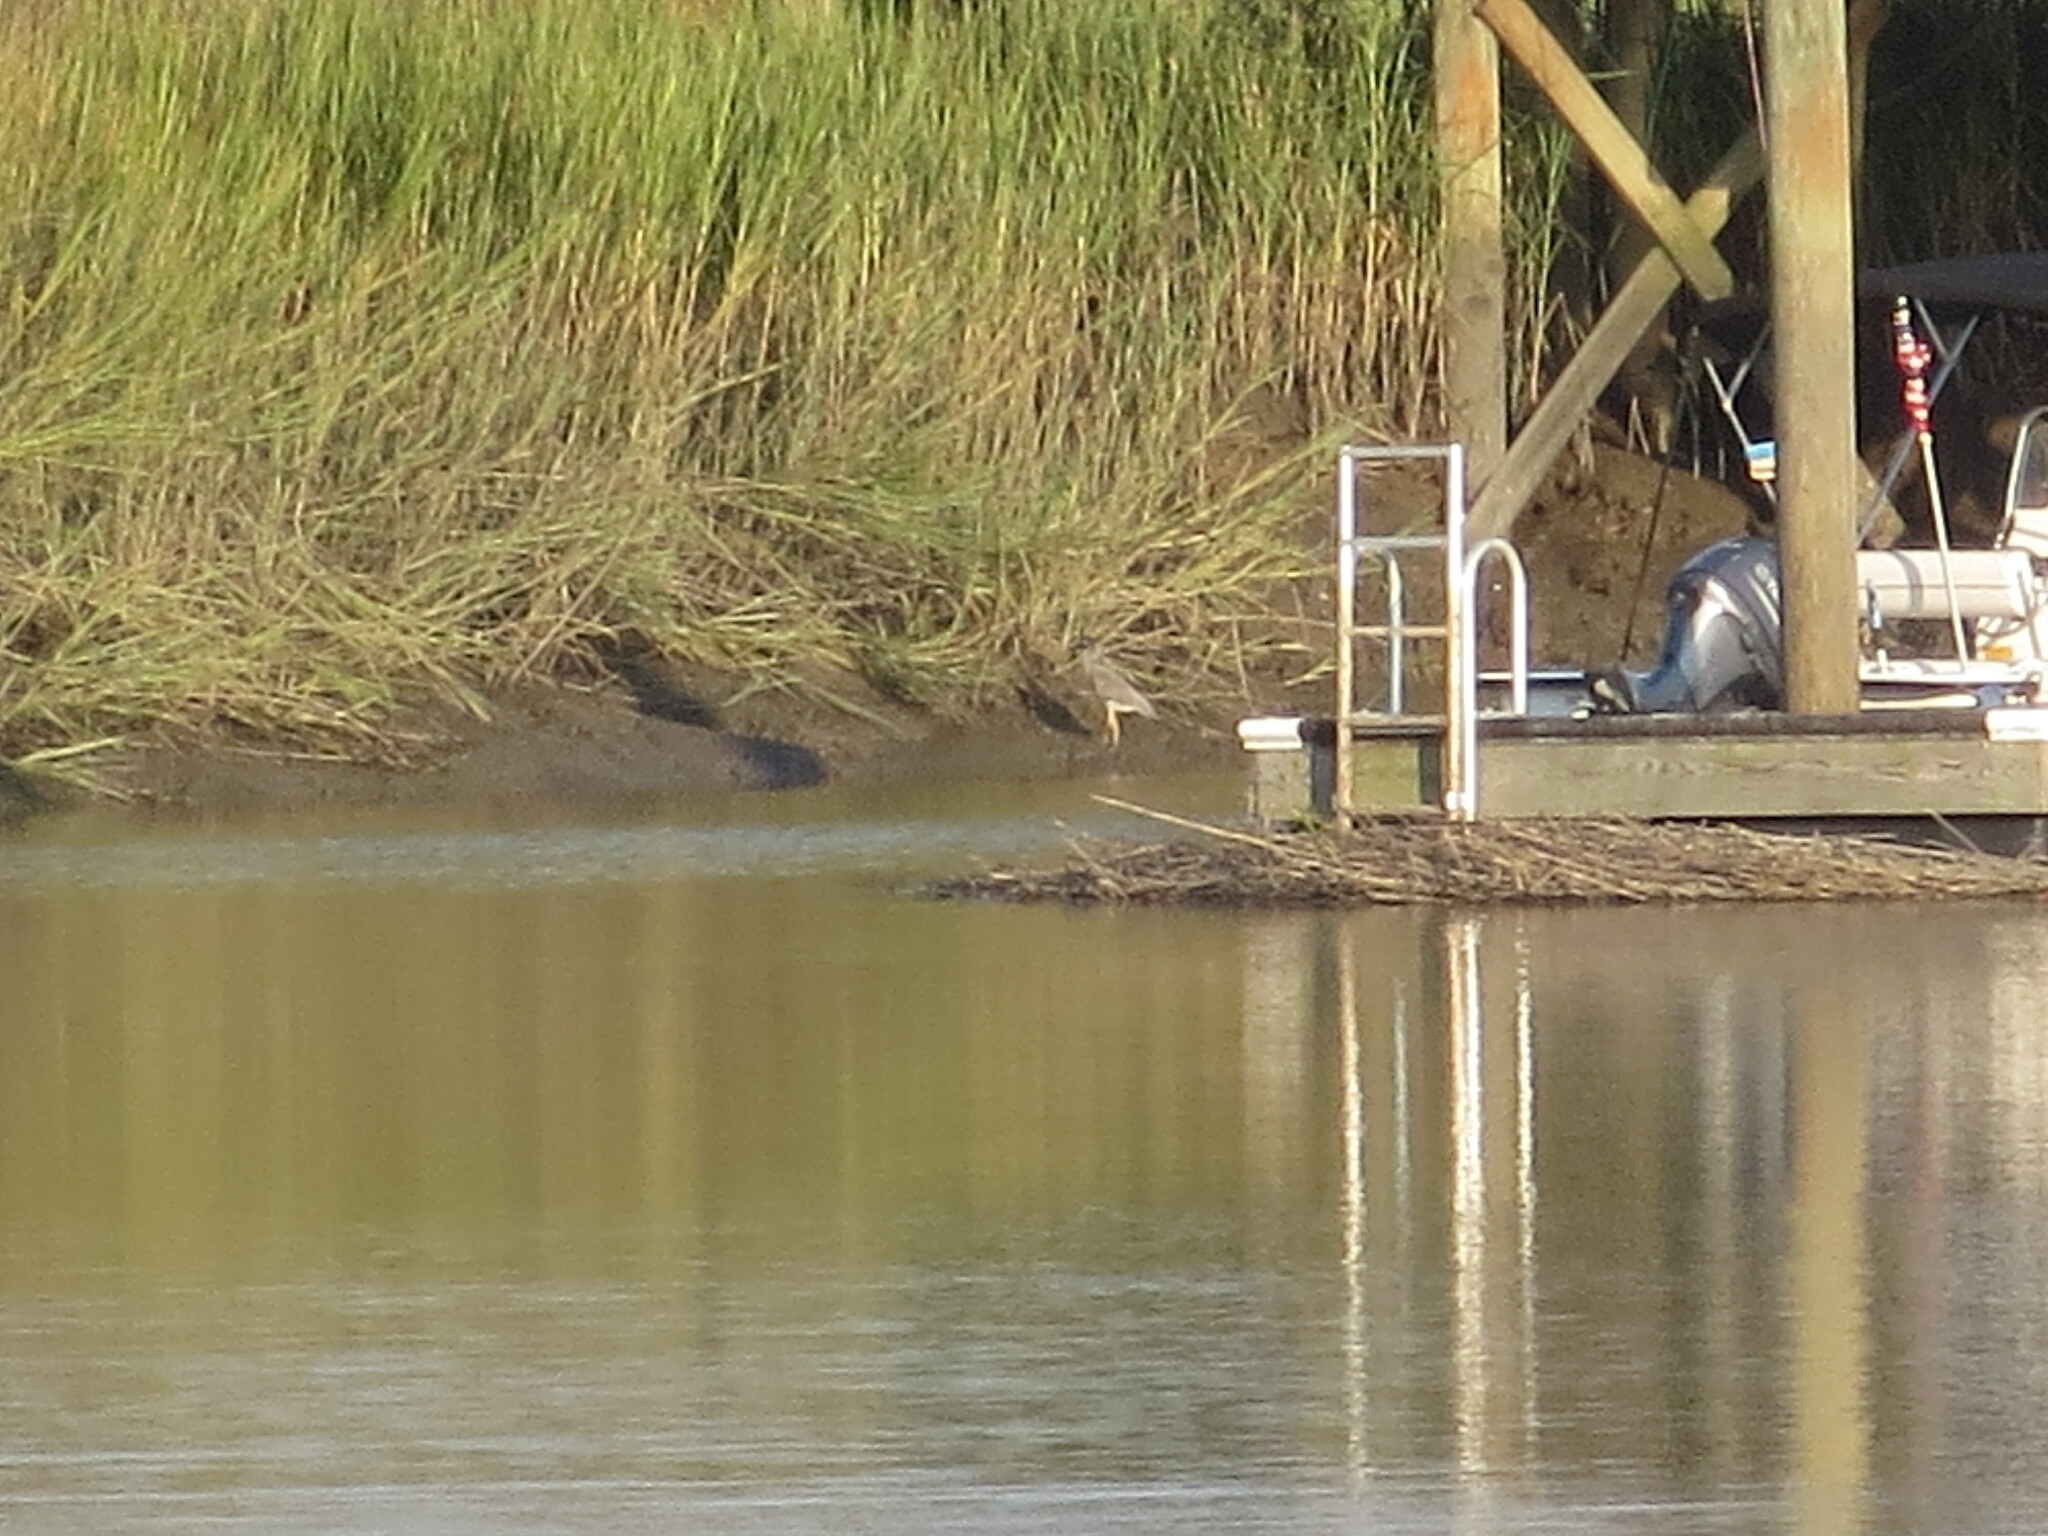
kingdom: Animalia
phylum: Chordata
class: Aves
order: Pelecaniformes
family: Ardeidae
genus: Nyctanassa
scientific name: Nyctanassa violacea
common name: Yellow-crowned night heron
